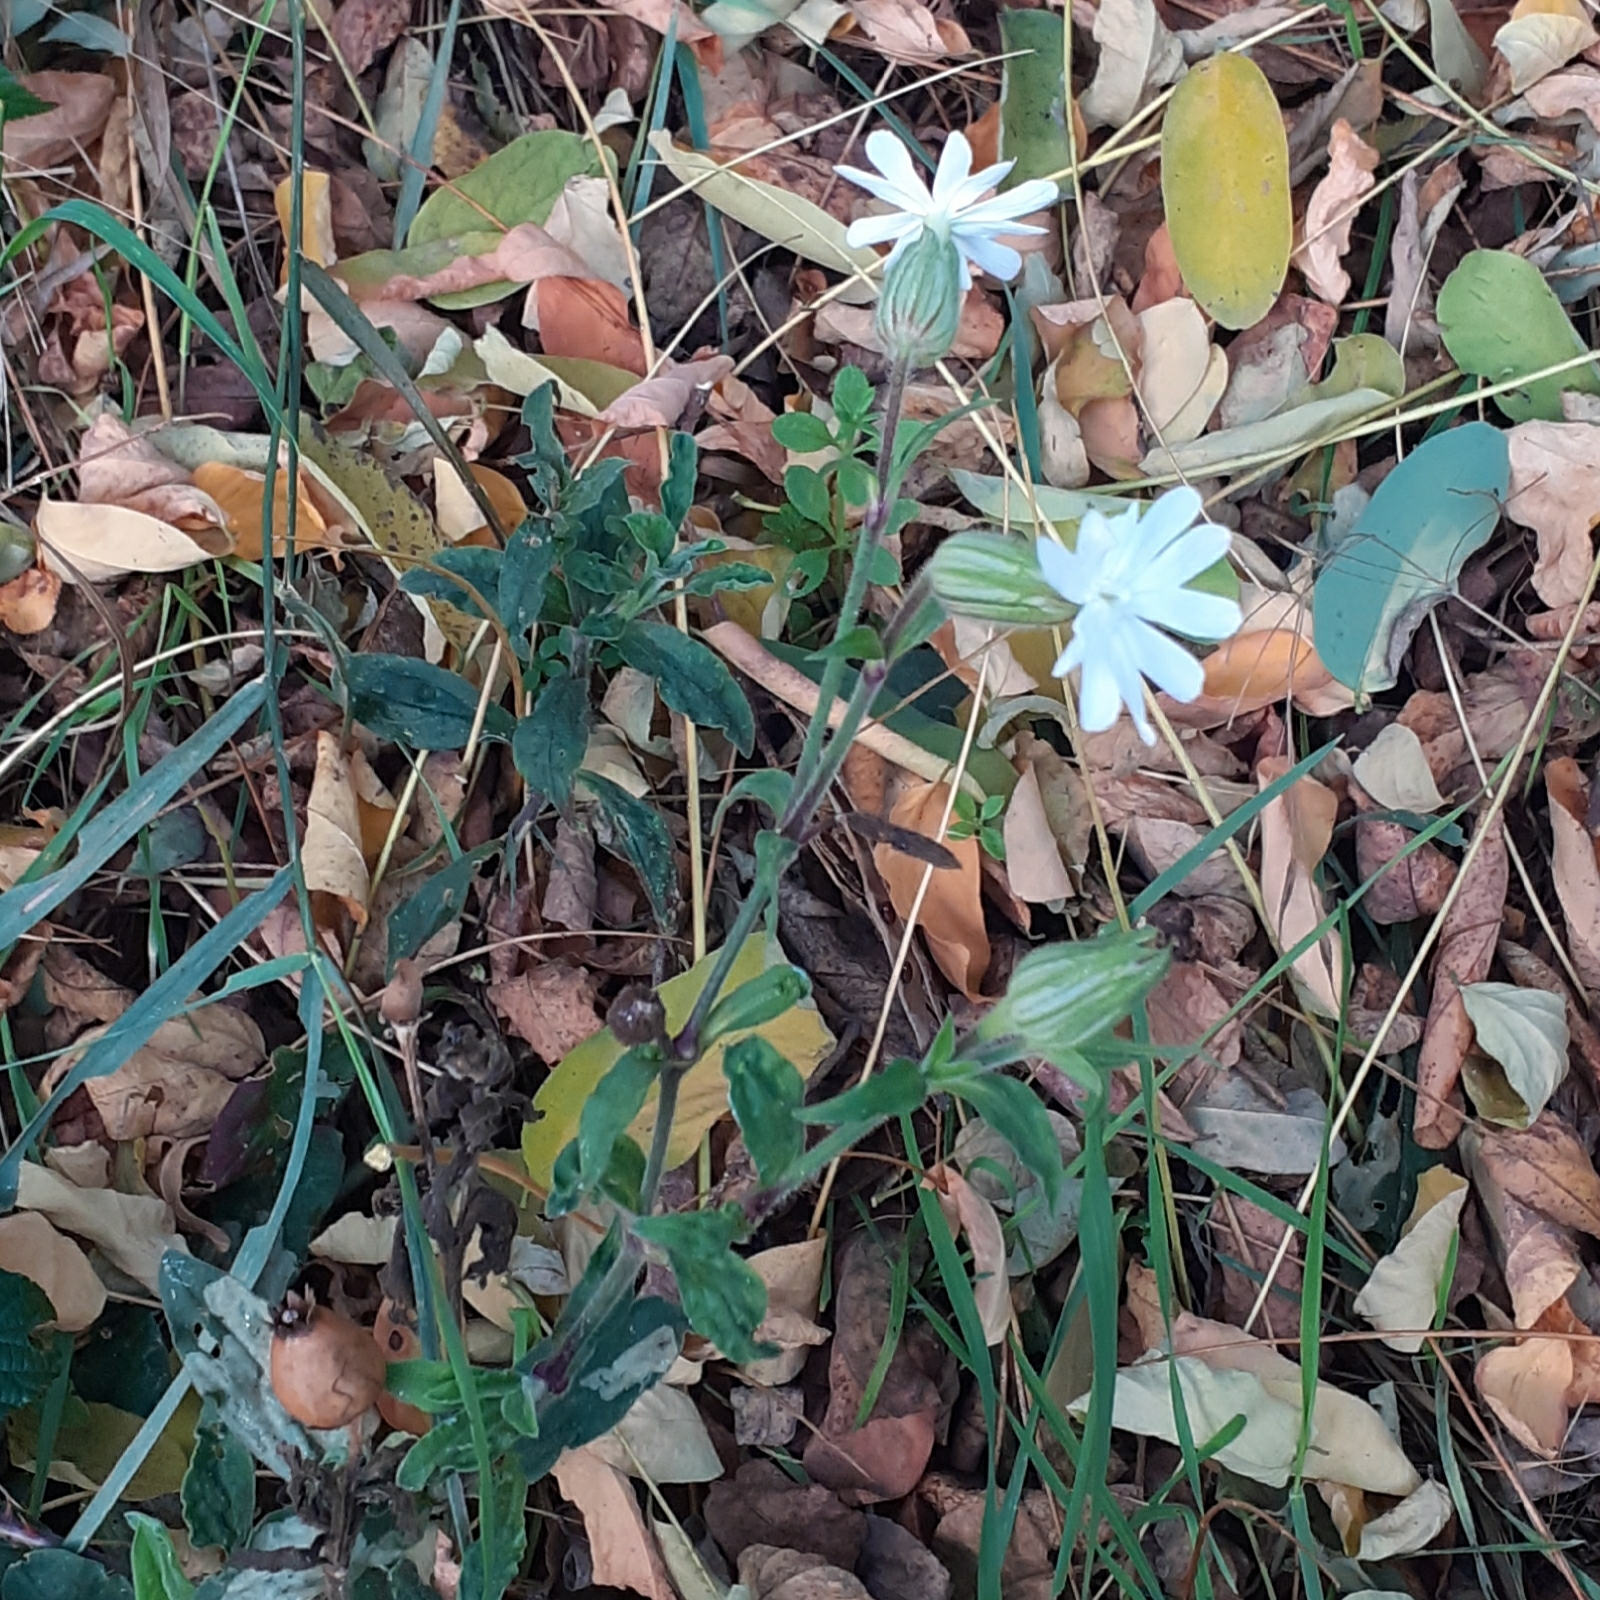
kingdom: Plantae
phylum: Tracheophyta
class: Magnoliopsida
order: Caryophyllales
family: Caryophyllaceae
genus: Silene
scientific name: Silene latifolia
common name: White campion
